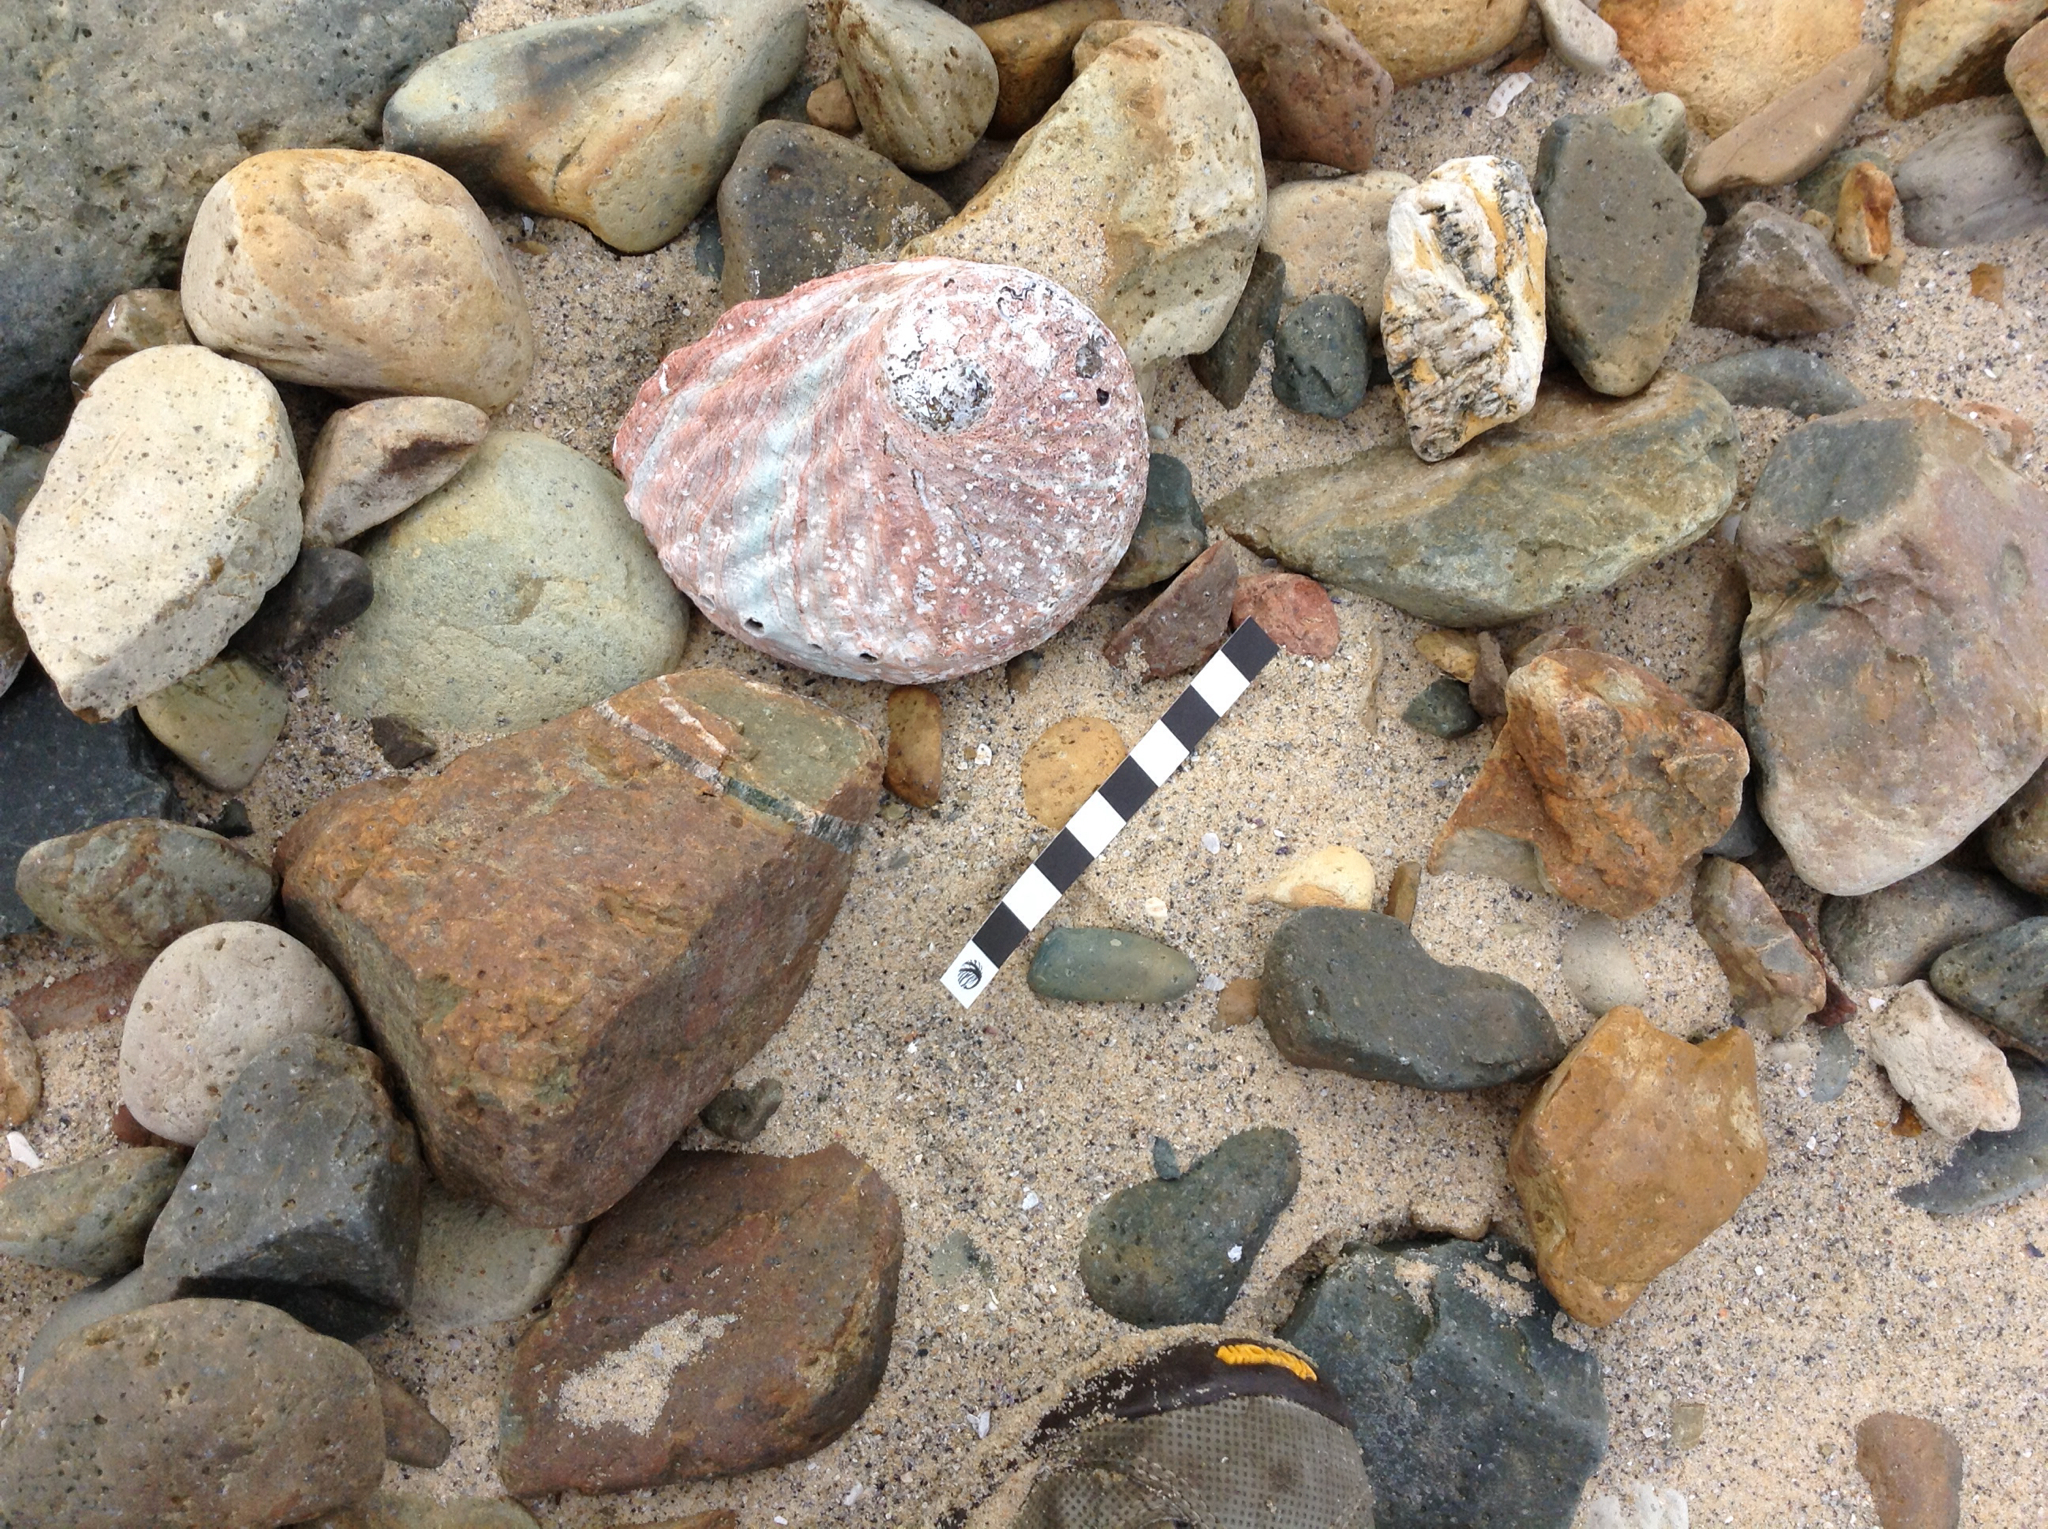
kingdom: Animalia
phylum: Mollusca
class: Gastropoda
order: Lepetellida
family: Haliotidae
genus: Haliotis
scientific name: Haliotis rubra
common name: Blacklip abalone
